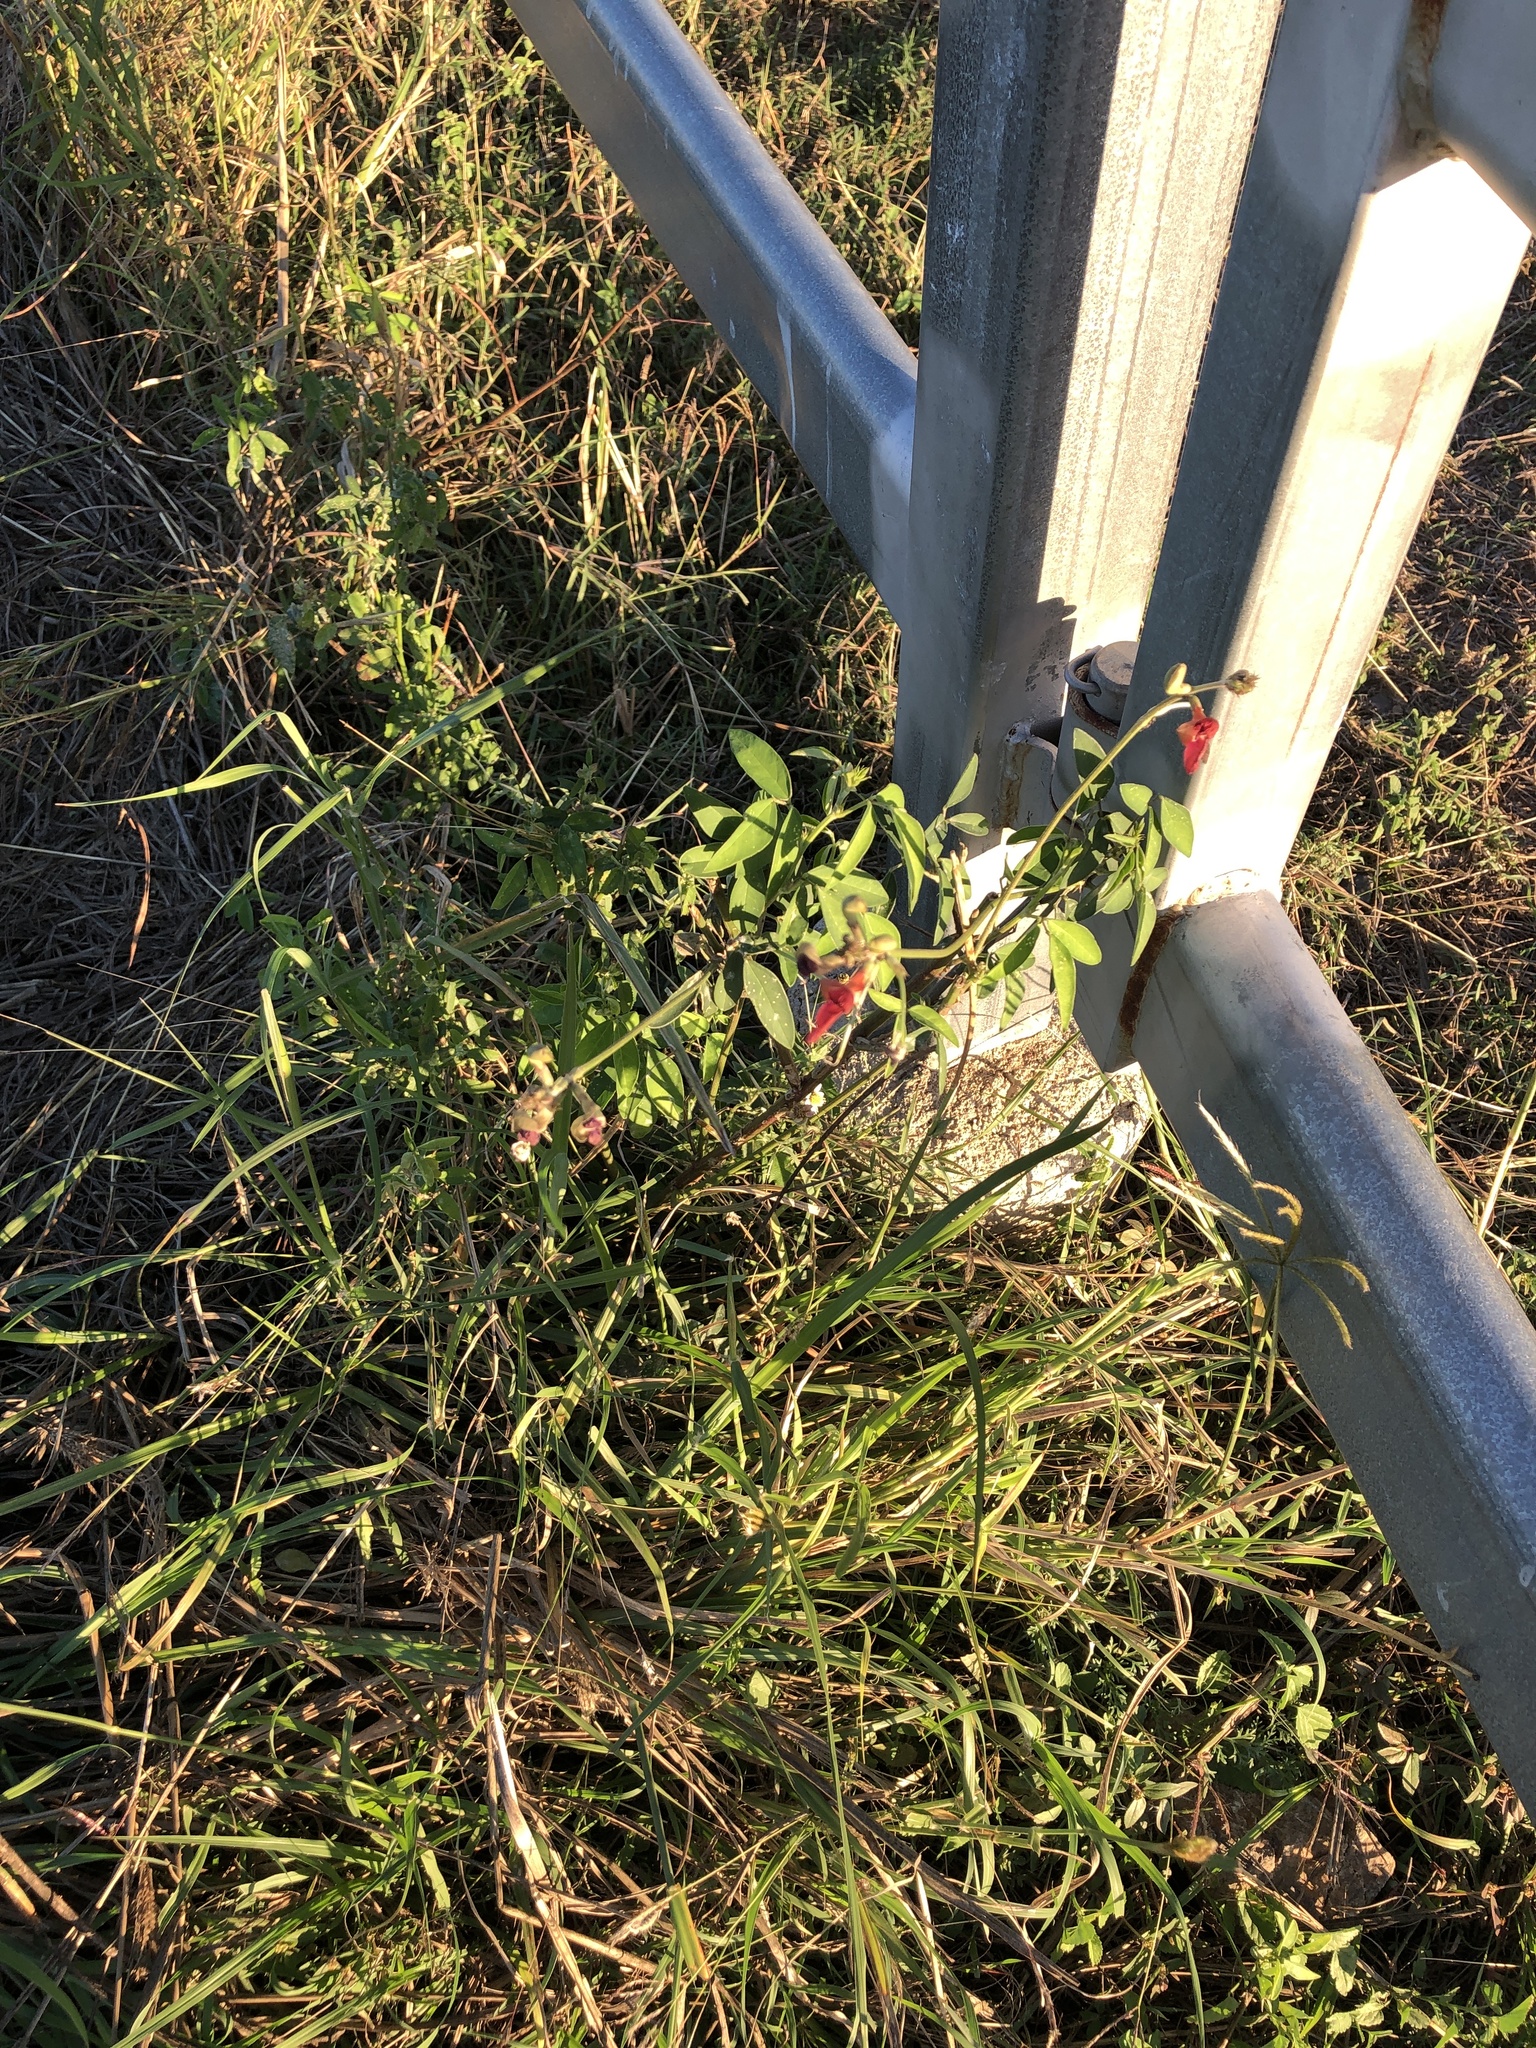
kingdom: Plantae
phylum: Tracheophyta
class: Magnoliopsida
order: Fabales
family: Fabaceae
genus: Macroptilium
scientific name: Macroptilium lathyroides
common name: Wild bushbean
